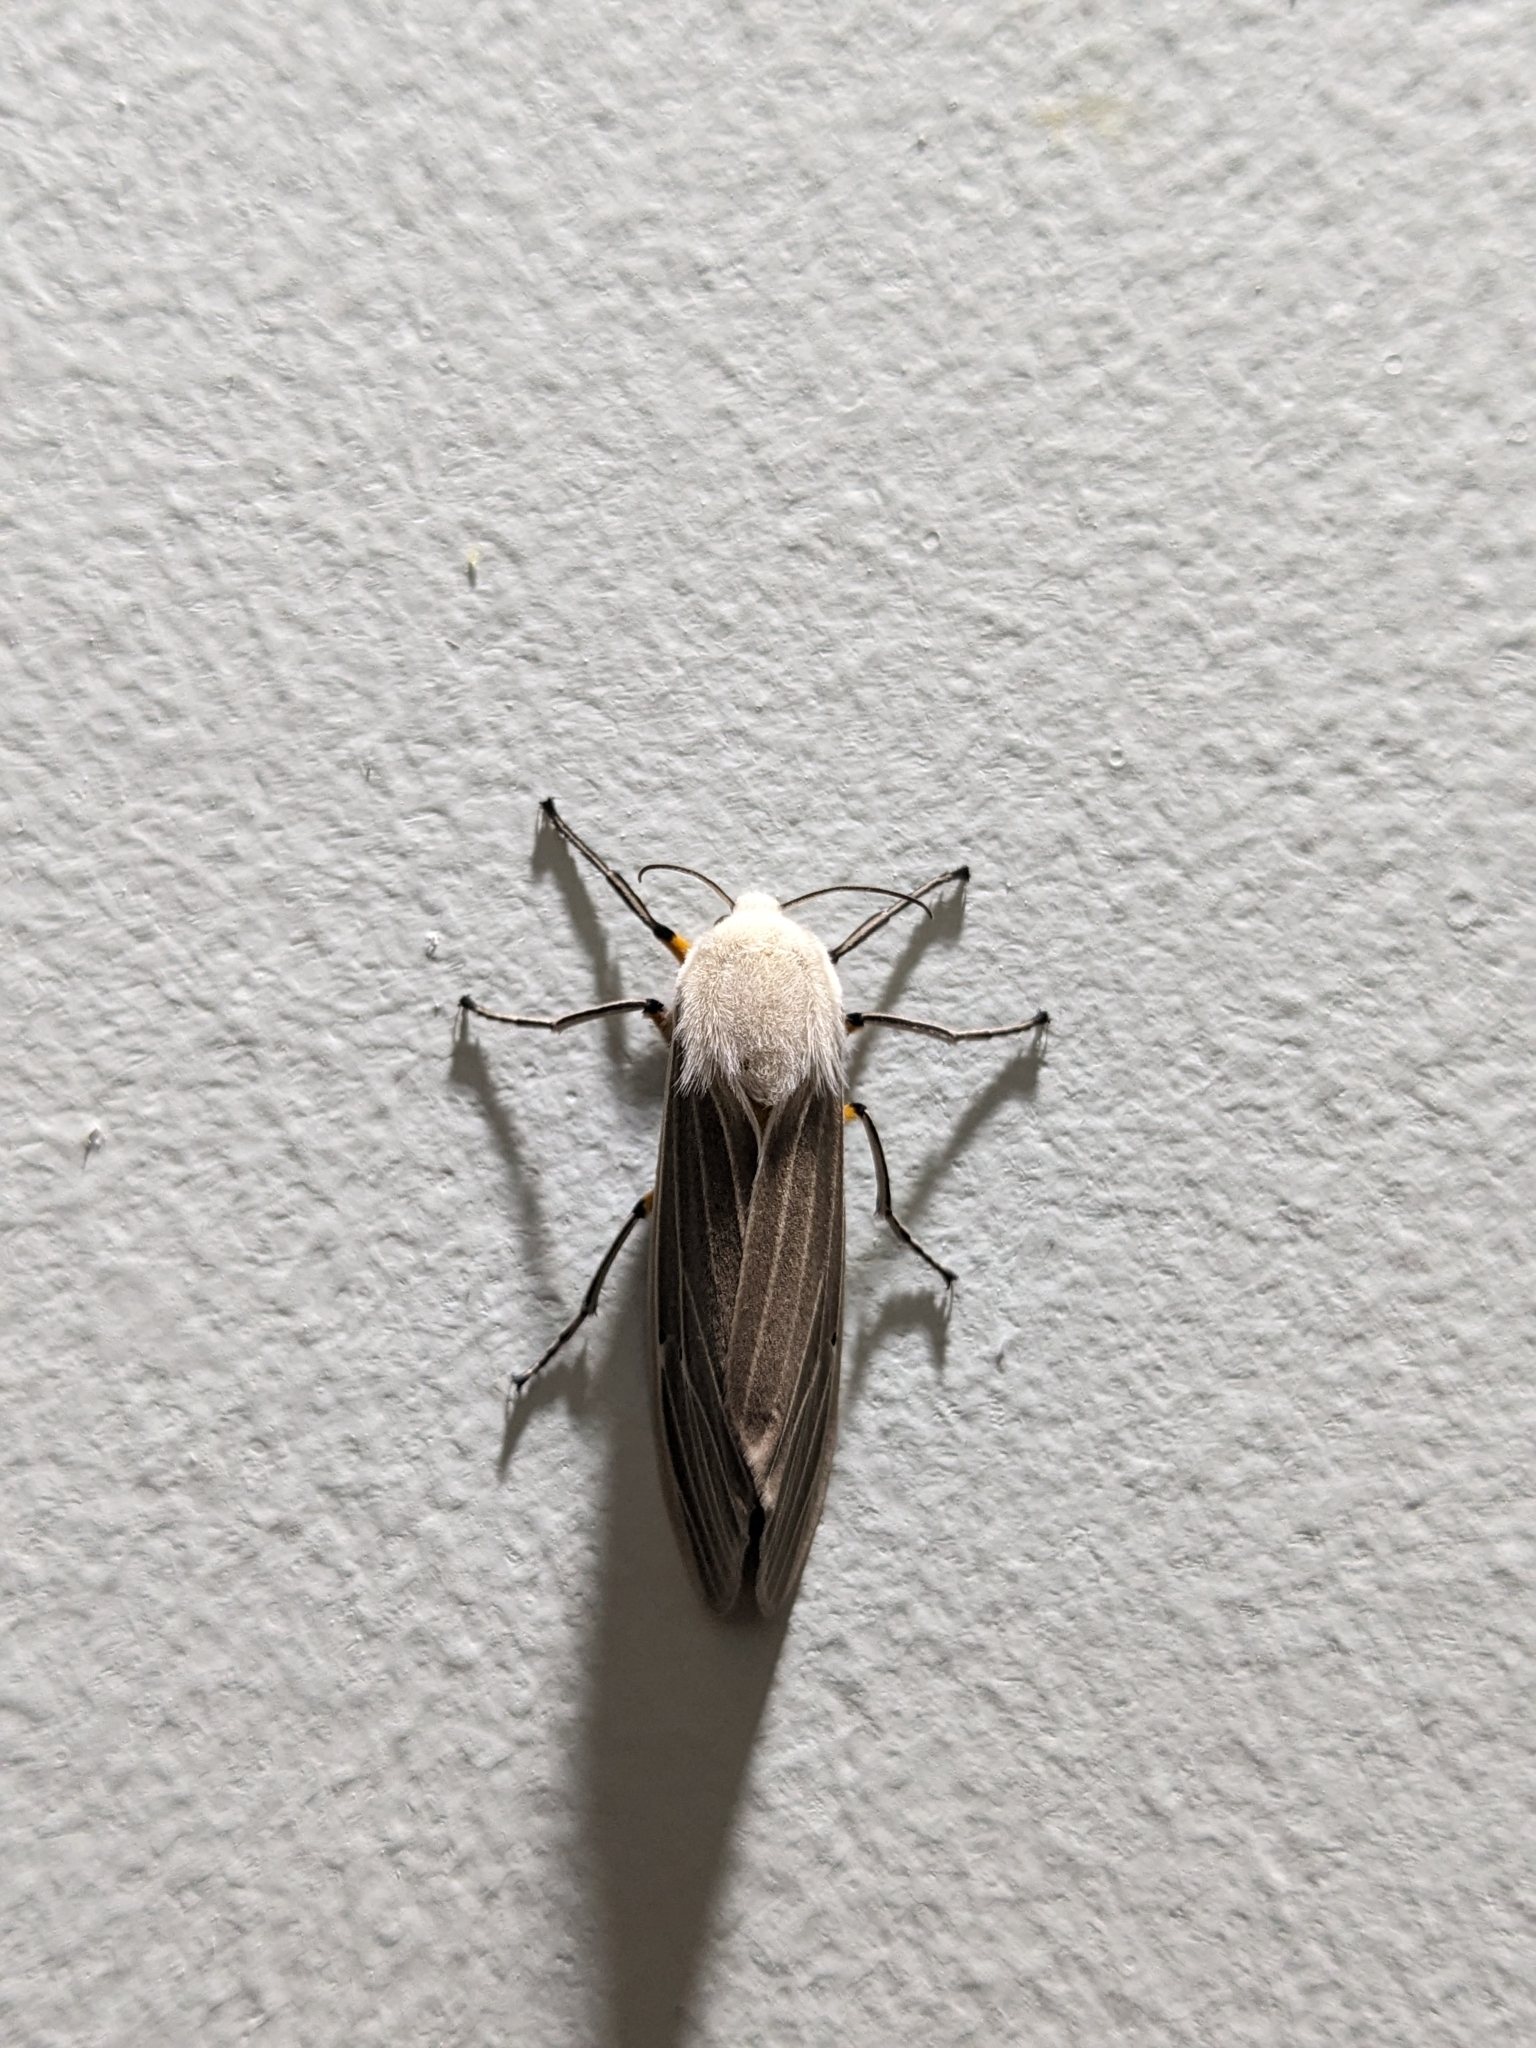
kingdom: Animalia
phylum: Arthropoda
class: Insecta
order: Lepidoptera
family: Erebidae
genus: Creatonotos
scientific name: Creatonotos transiens
